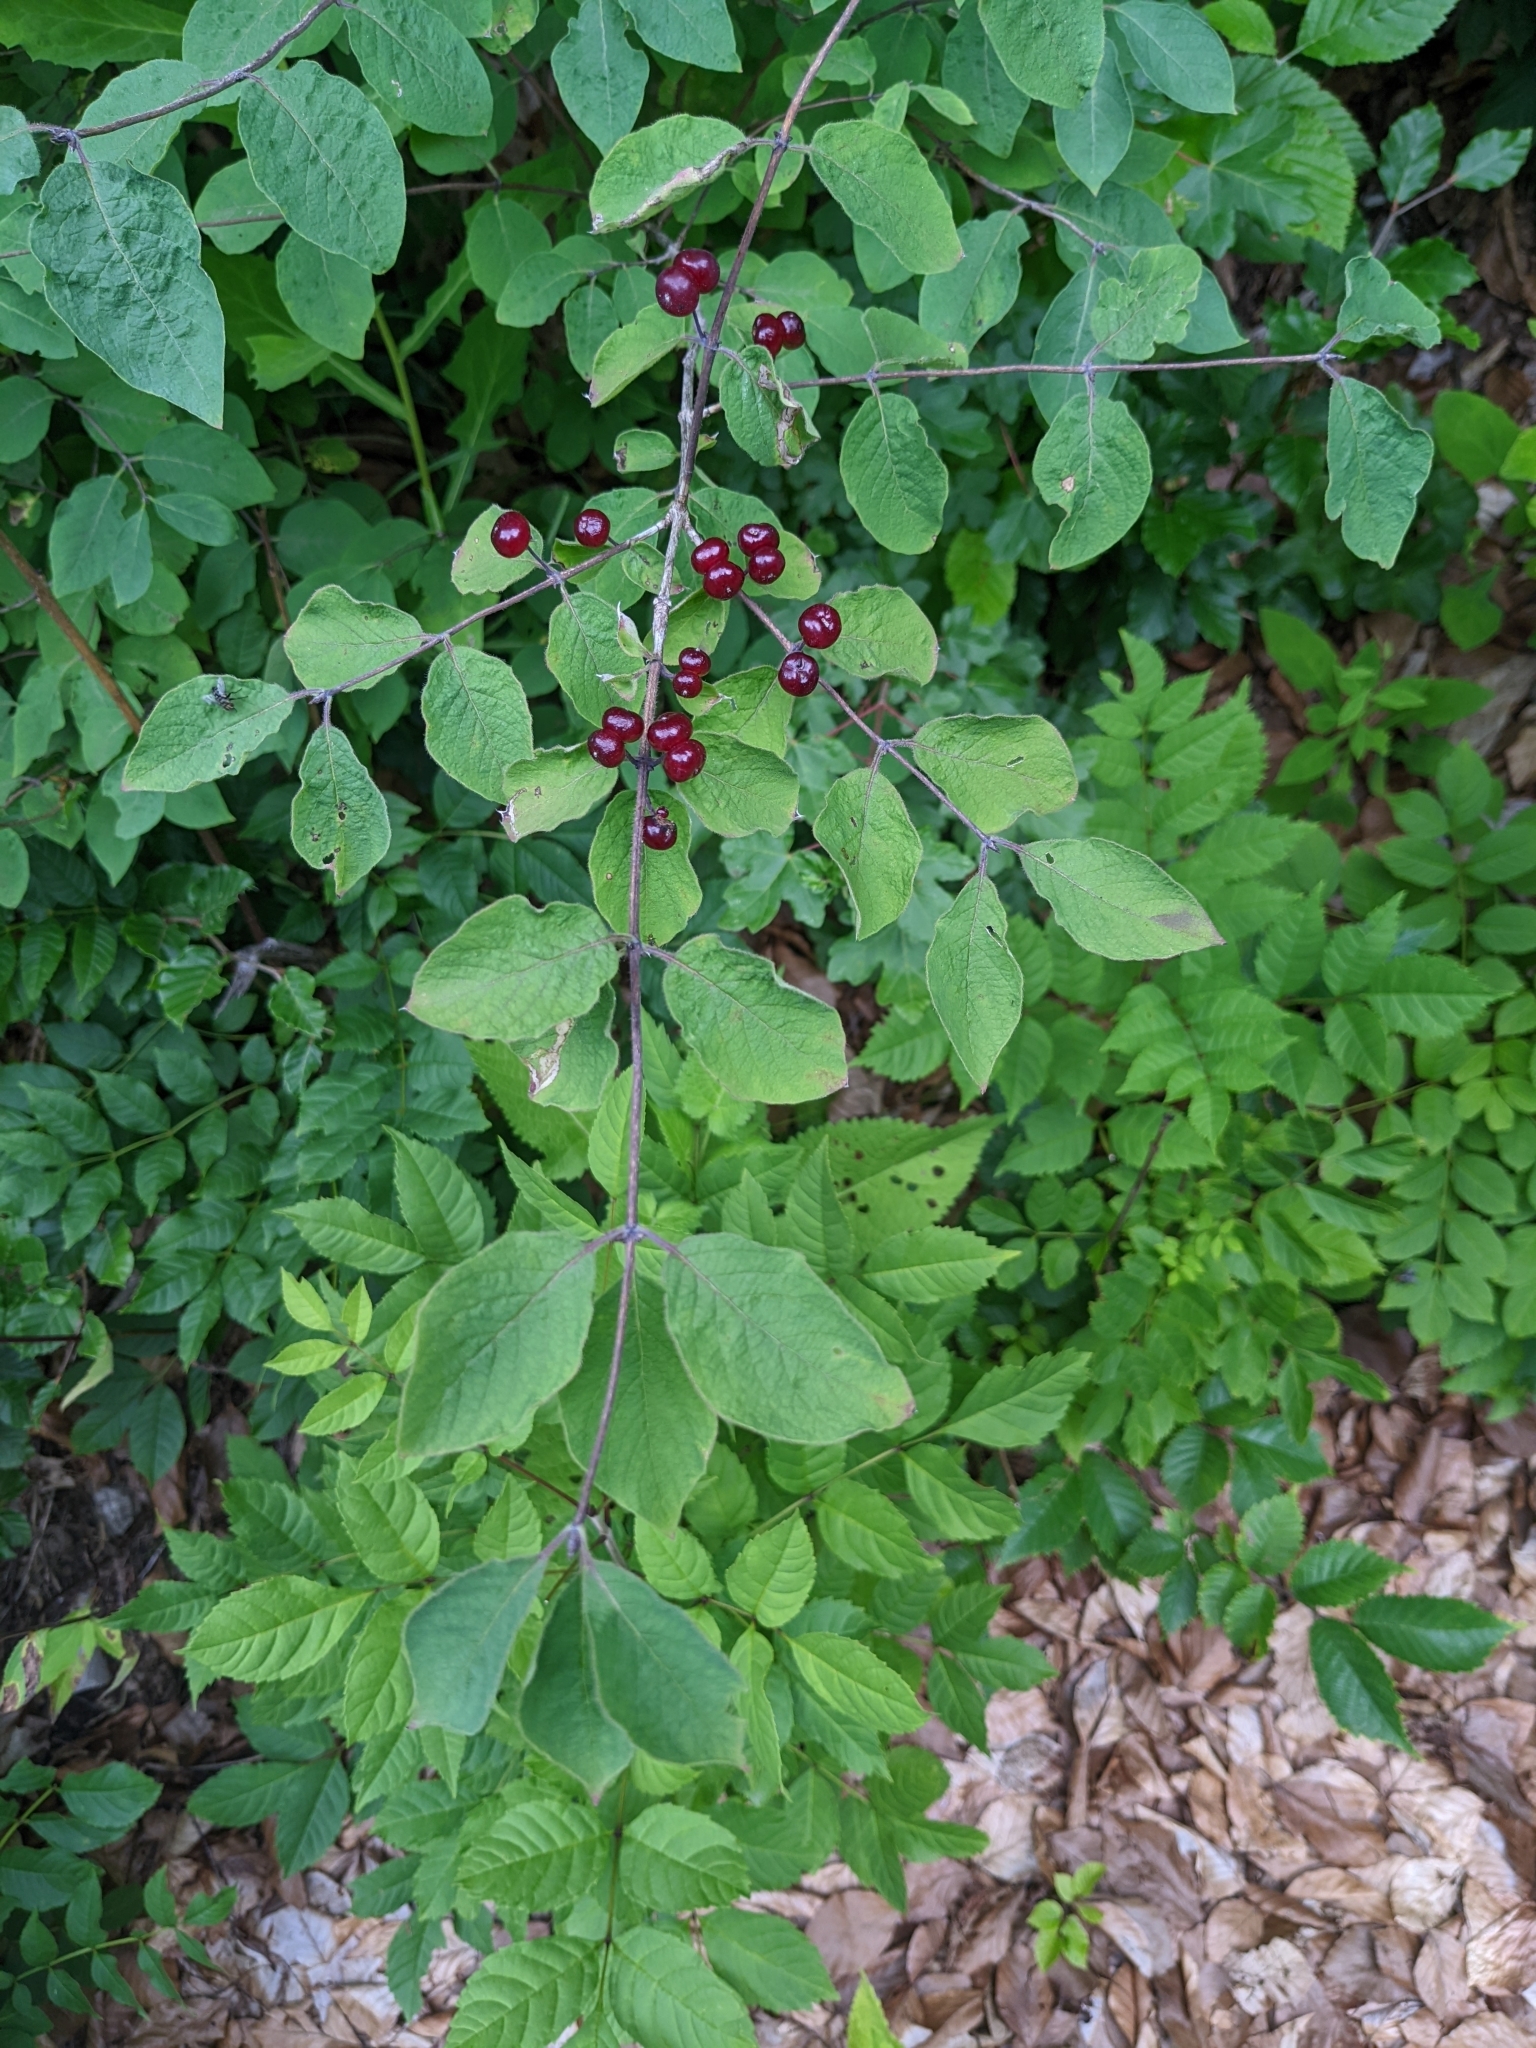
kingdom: Plantae
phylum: Tracheophyta
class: Magnoliopsida
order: Dipsacales
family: Caprifoliaceae
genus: Lonicera
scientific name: Lonicera xylosteum
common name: Fly honeysuckle
